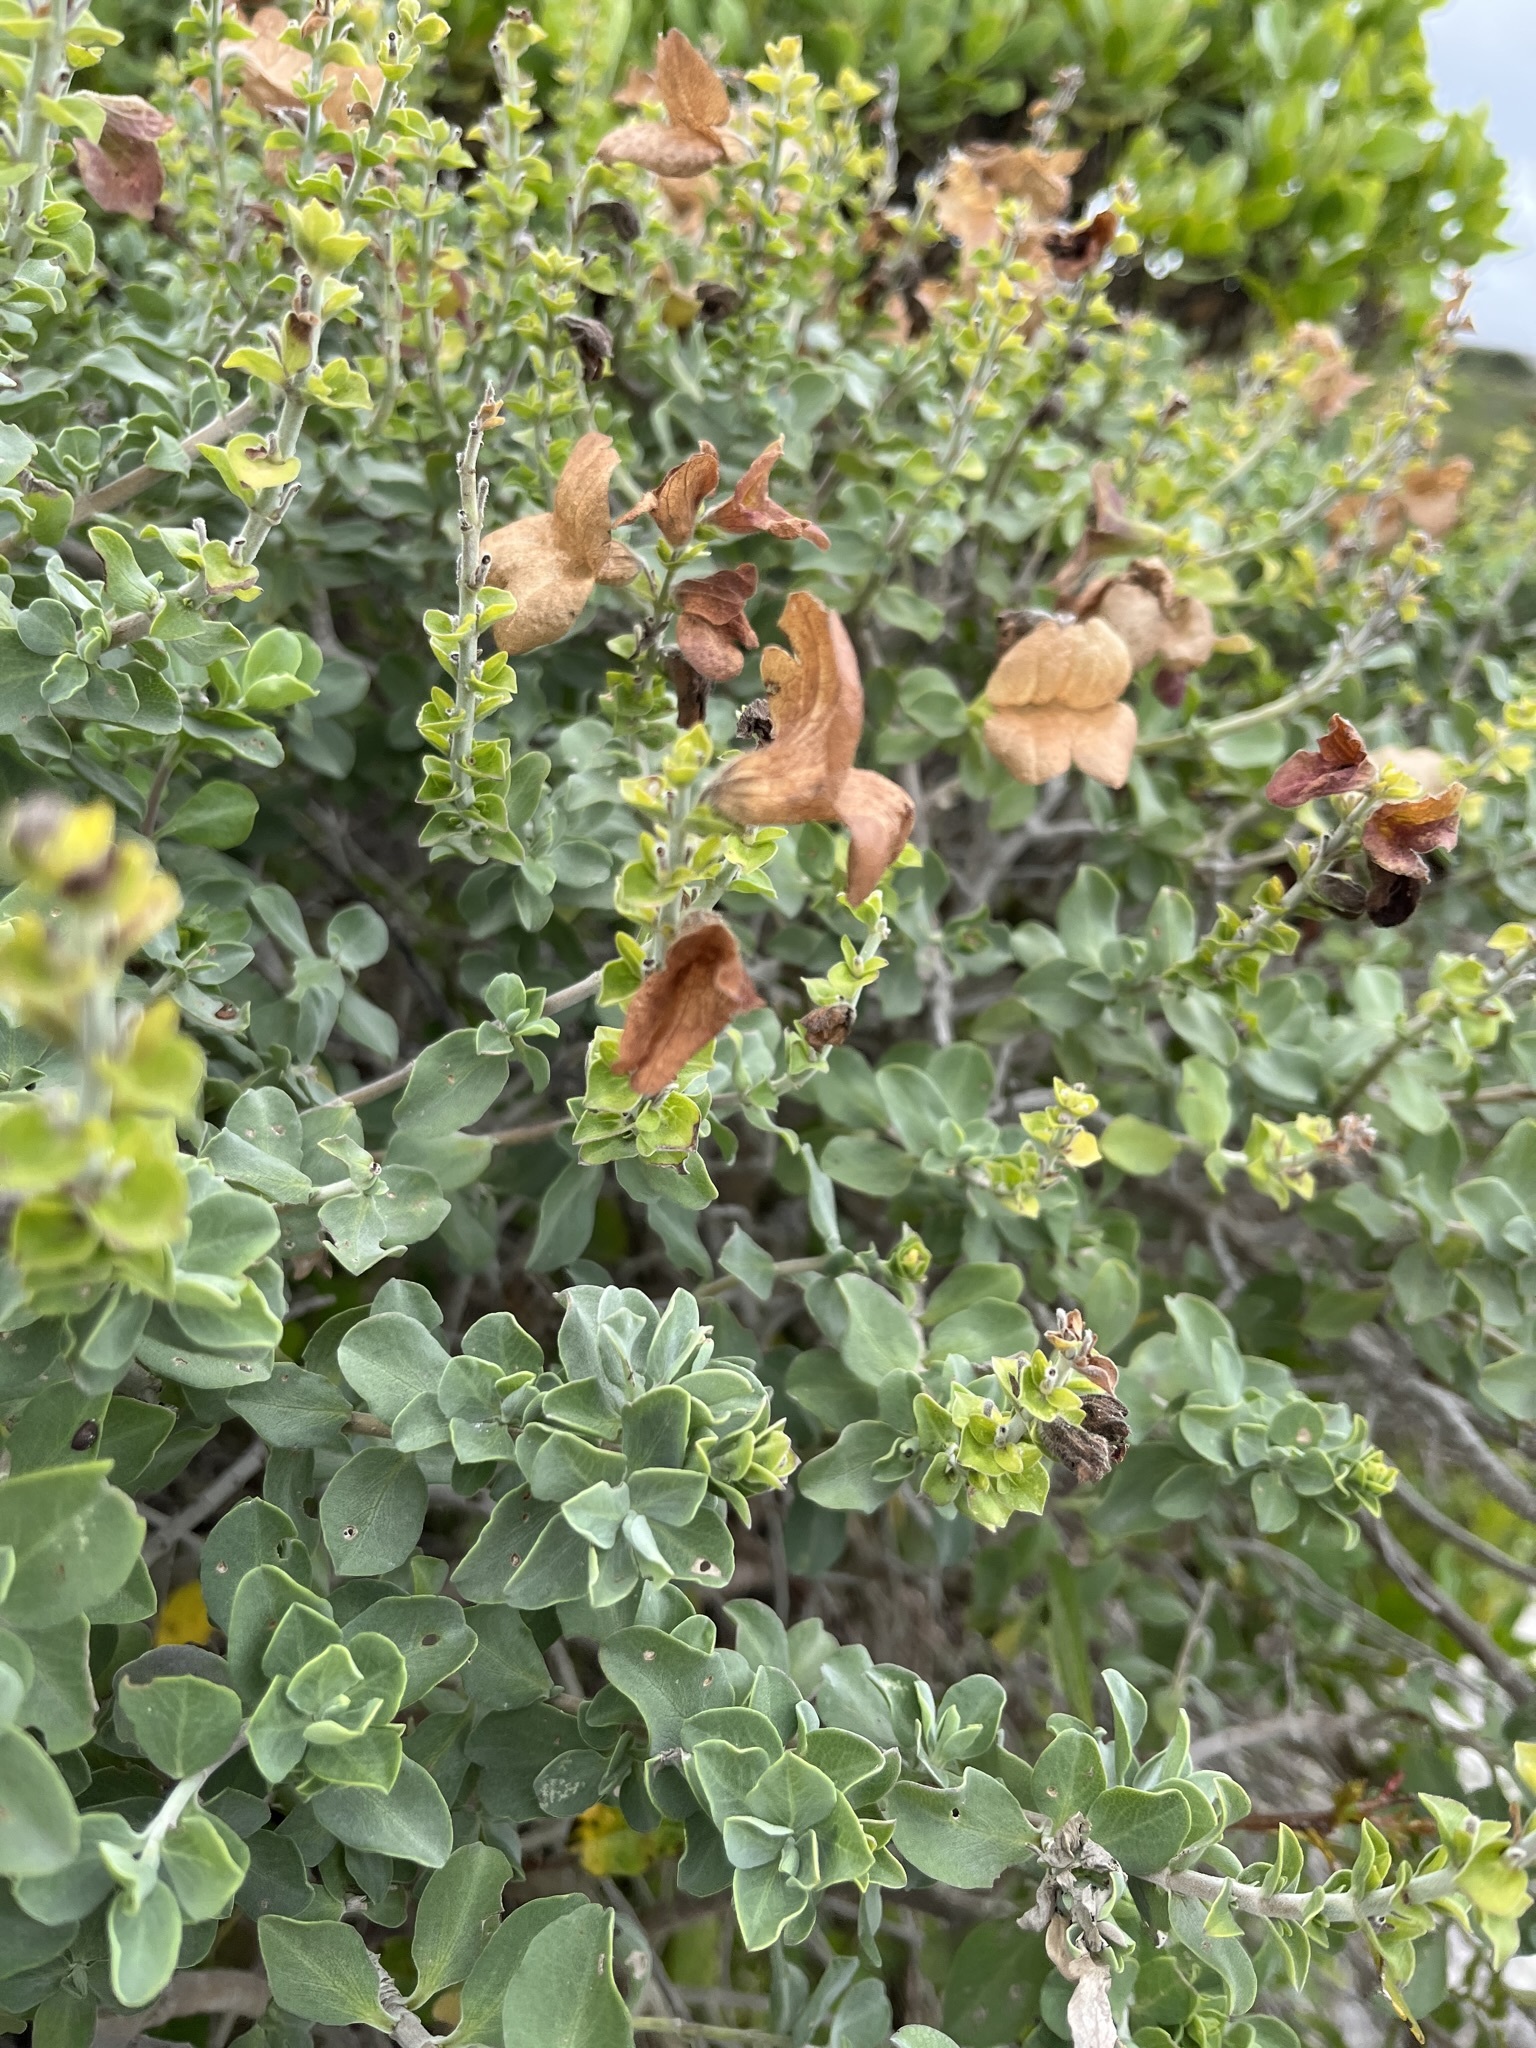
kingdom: Plantae
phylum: Tracheophyta
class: Magnoliopsida
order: Lamiales
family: Lamiaceae
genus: Salvia
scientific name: Salvia aurea
